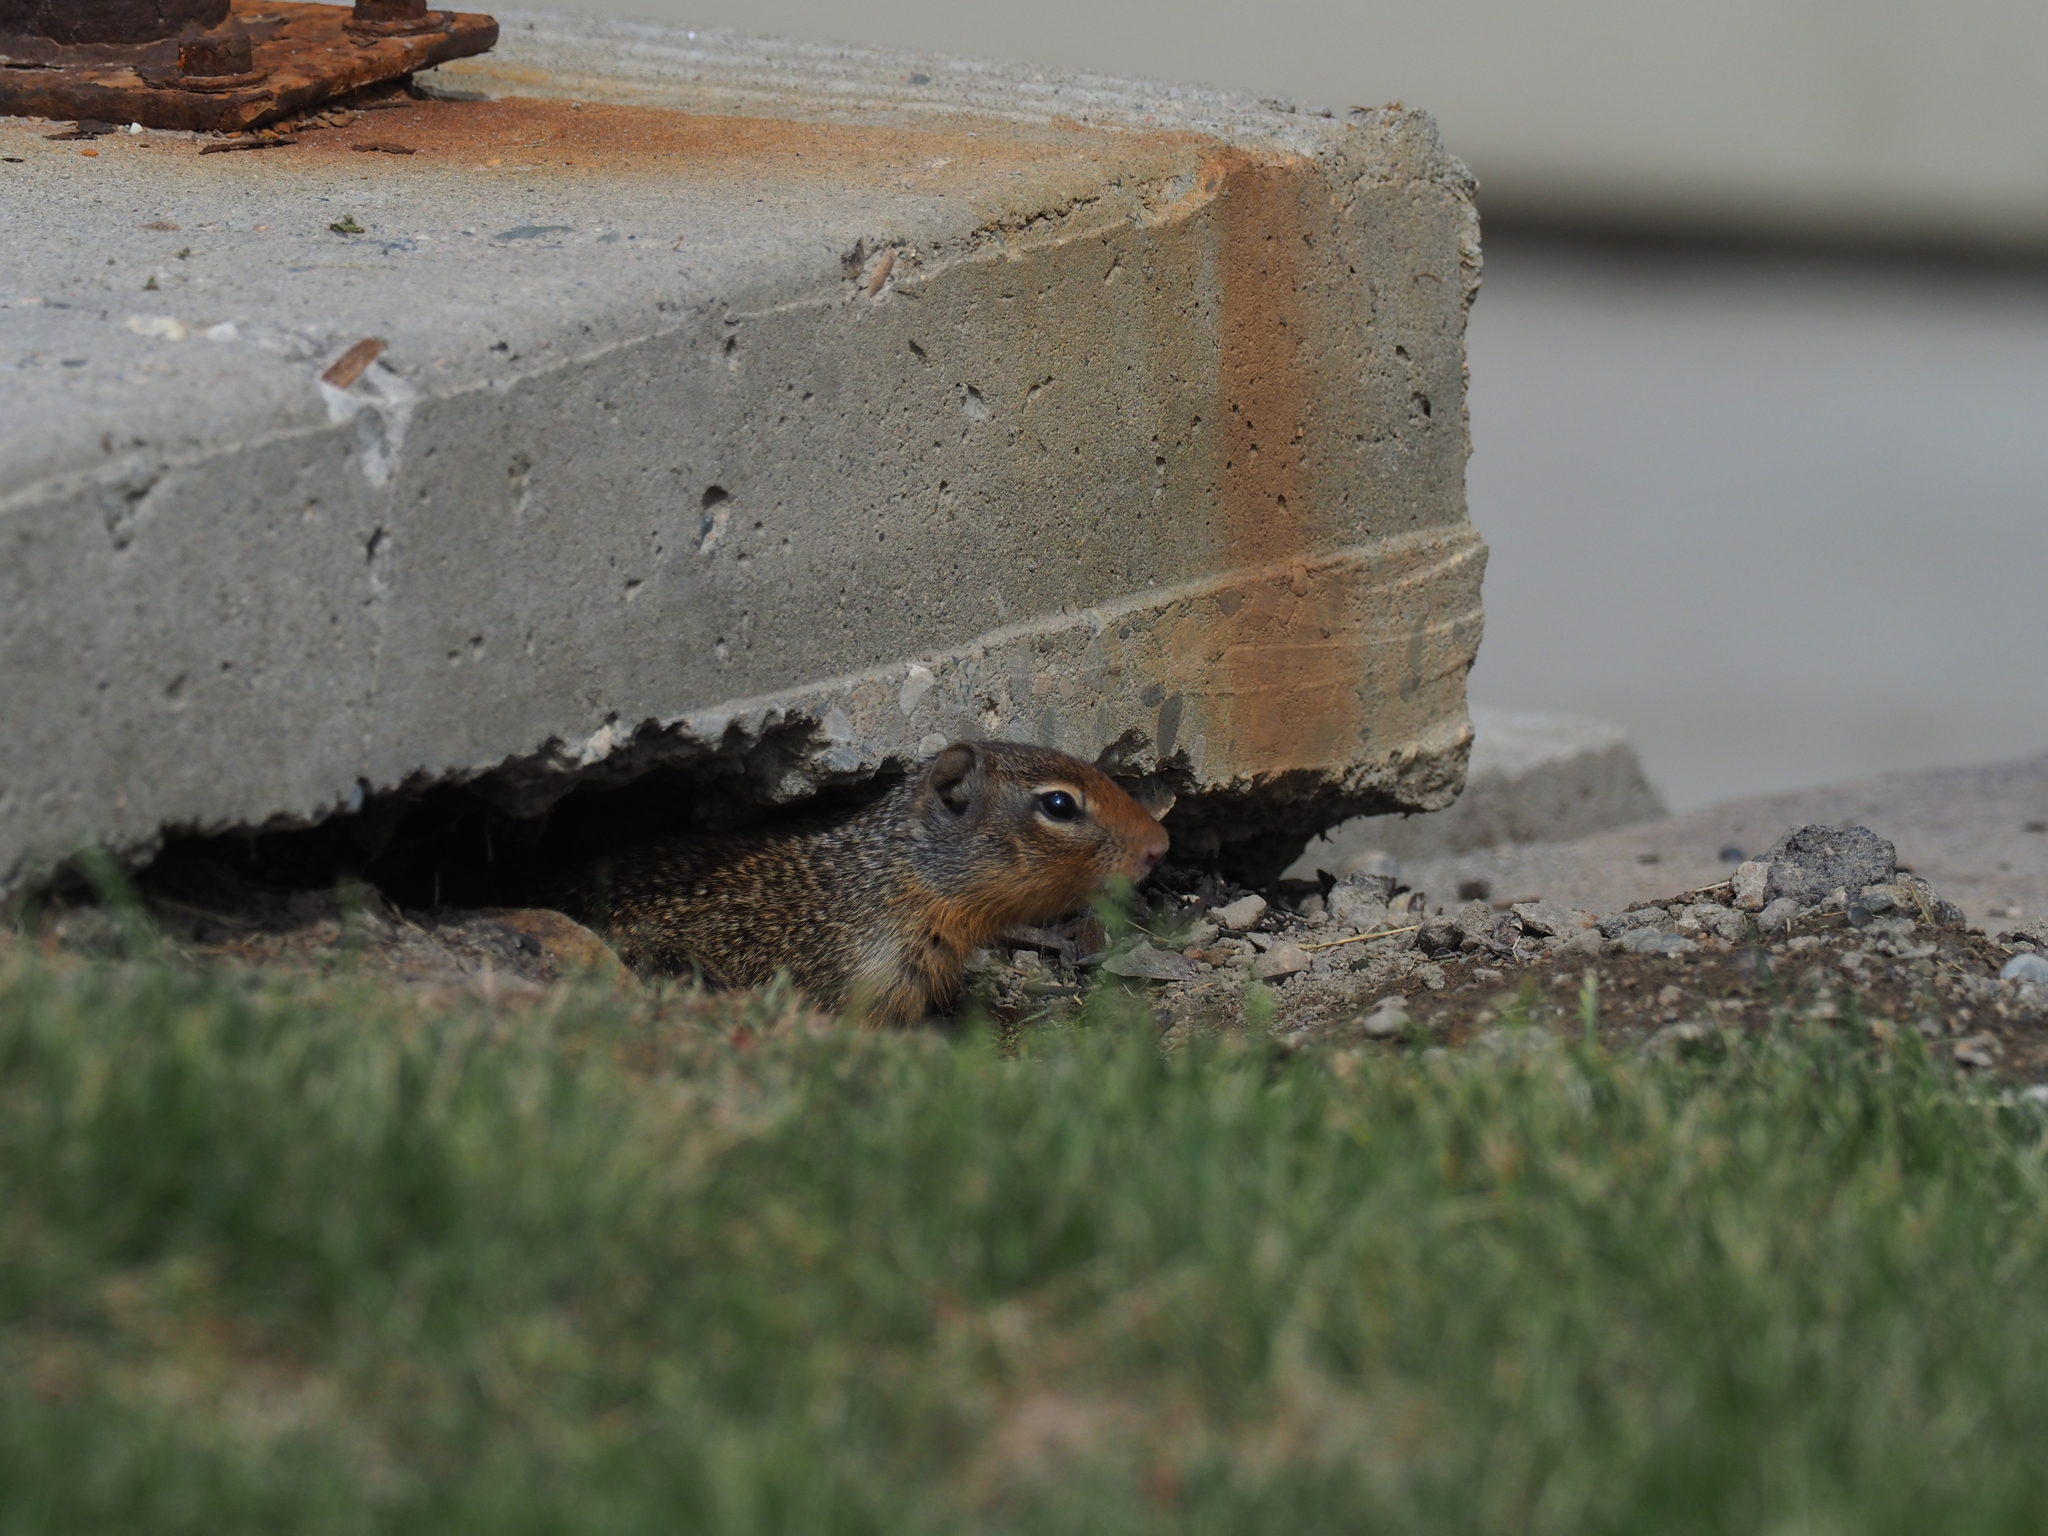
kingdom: Animalia
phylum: Chordata
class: Mammalia
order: Rodentia
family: Sciuridae
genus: Urocitellus
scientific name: Urocitellus columbianus
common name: Columbian ground squirrel
